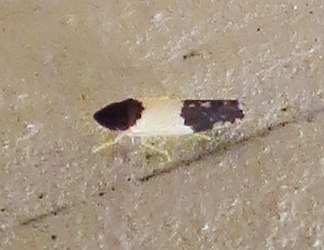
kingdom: Animalia
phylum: Arthropoda
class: Insecta
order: Hemiptera
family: Cicadellidae
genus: Henribautia
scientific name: Henribautia nigricephala
